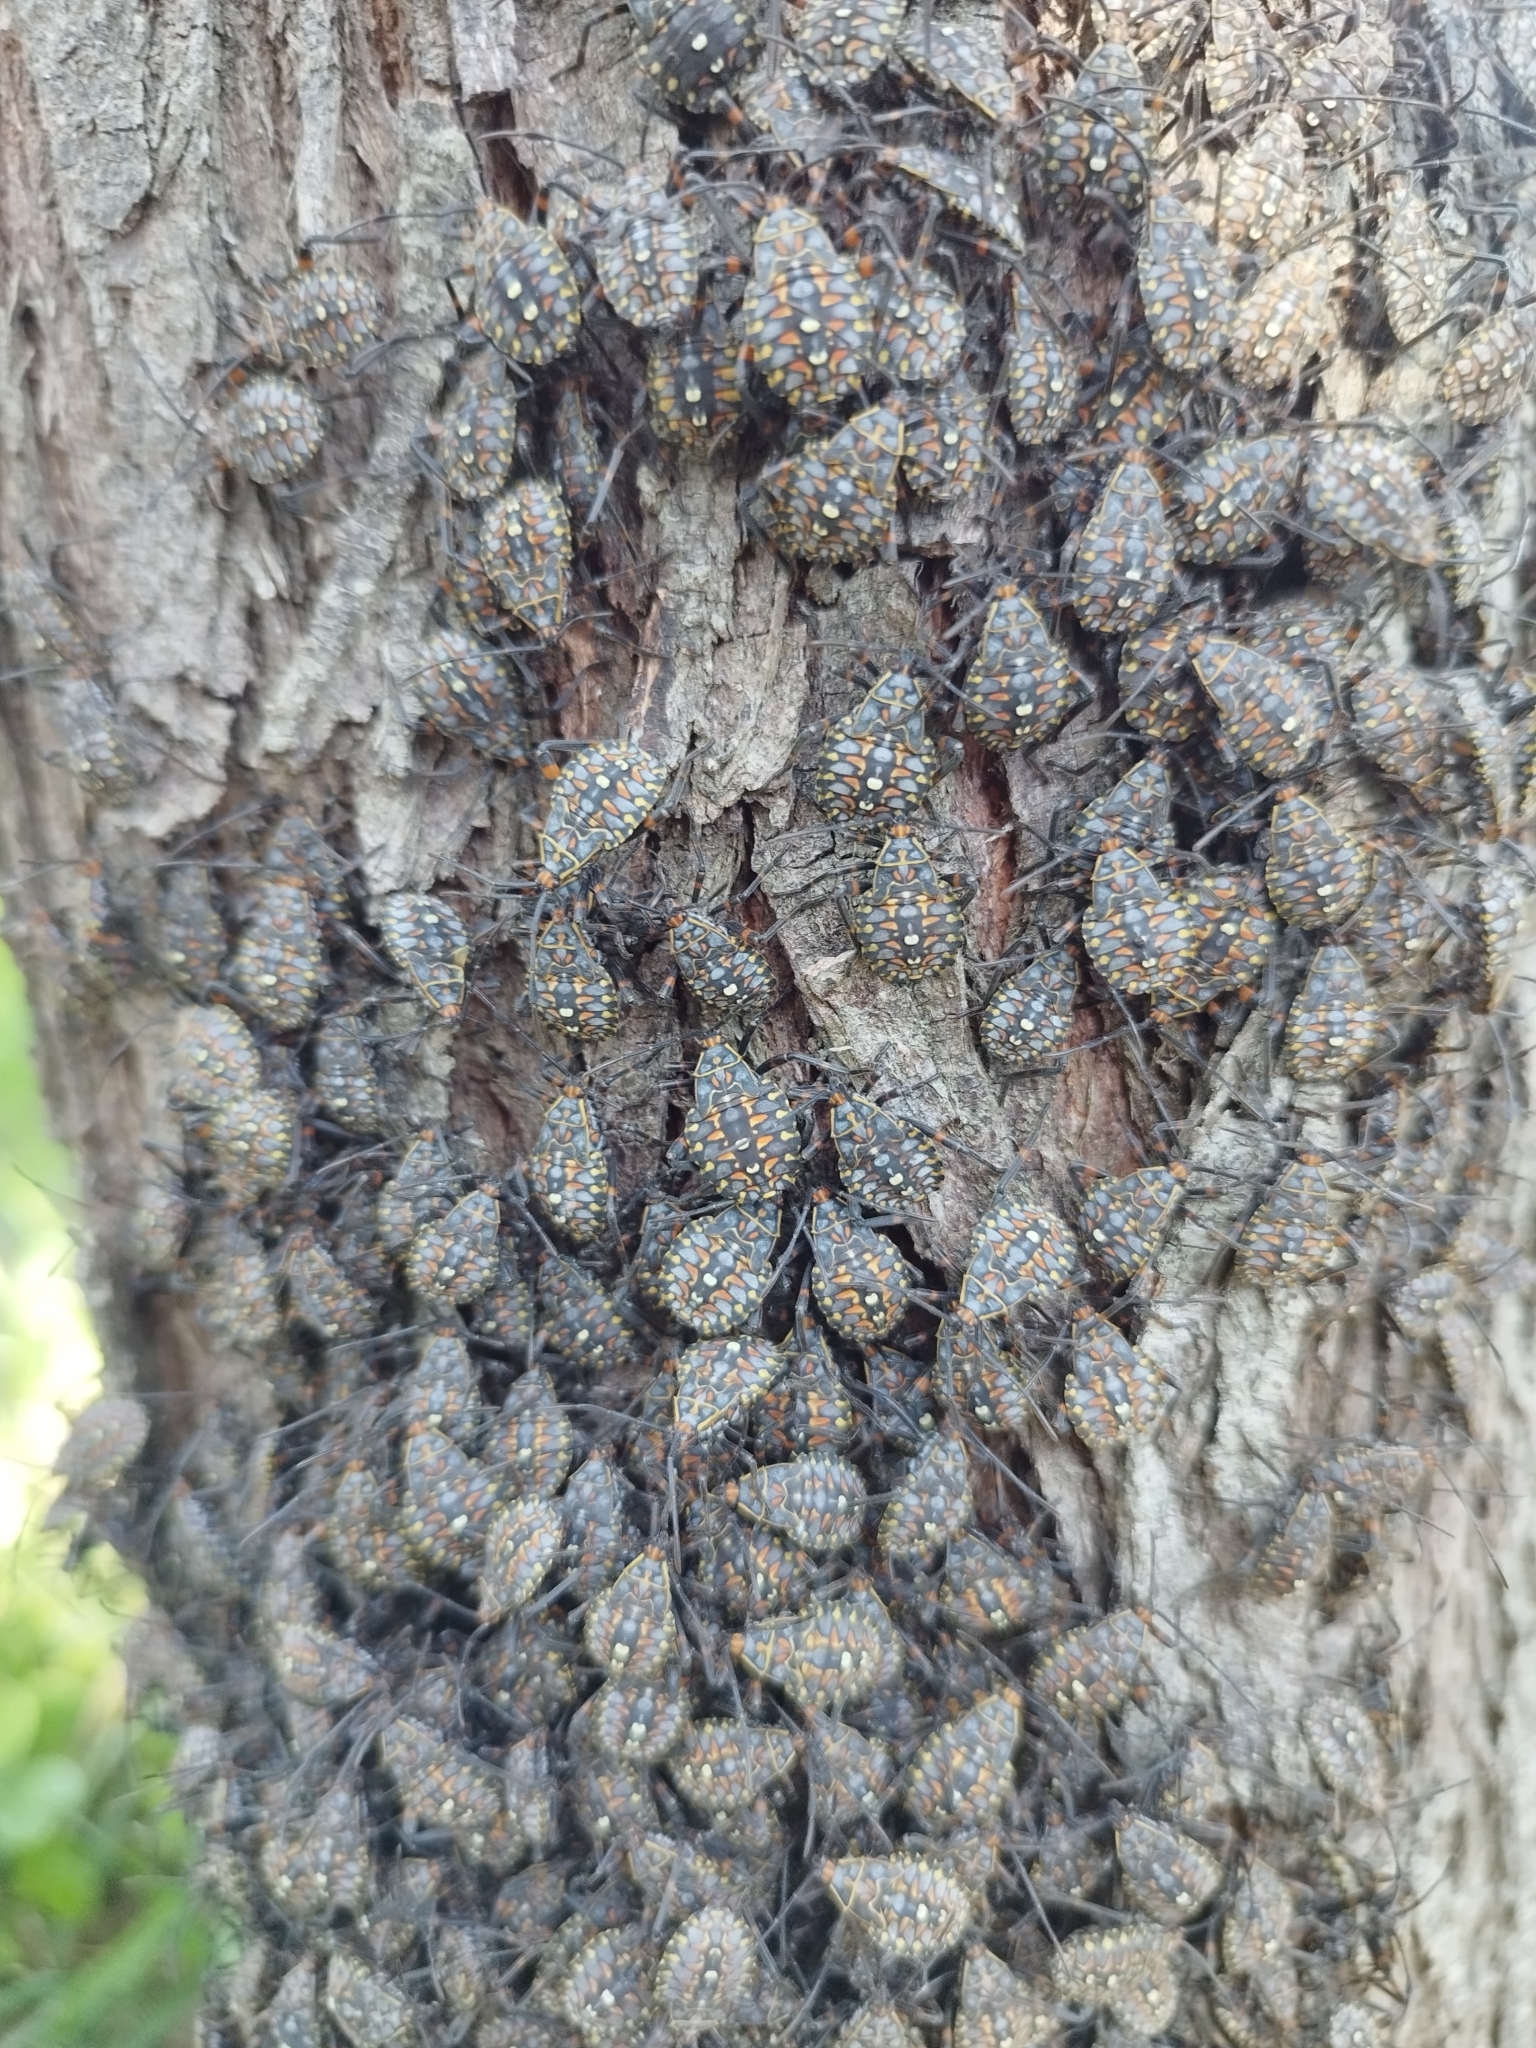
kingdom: Animalia
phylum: Arthropoda
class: Insecta
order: Hemiptera
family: Coreidae
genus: Pachylis
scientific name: Pachylis argentinus
